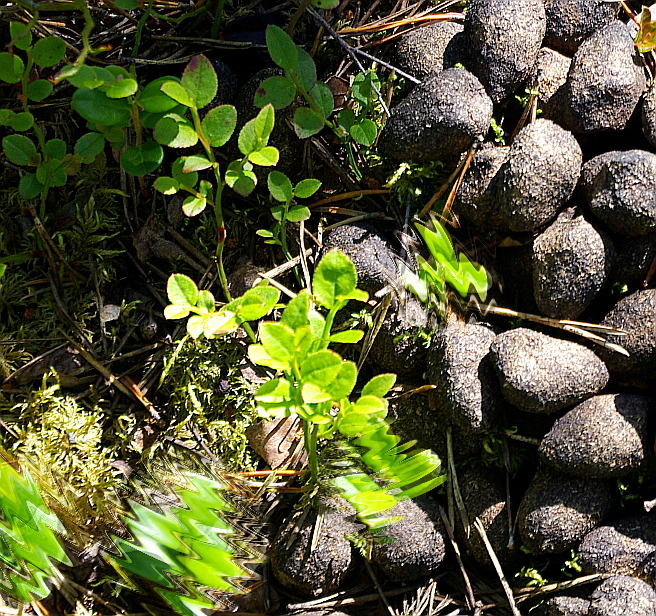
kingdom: Plantae
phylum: Tracheophyta
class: Magnoliopsida
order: Ericales
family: Ericaceae
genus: Vaccinium
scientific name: Vaccinium myrtillus
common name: Bilberry
